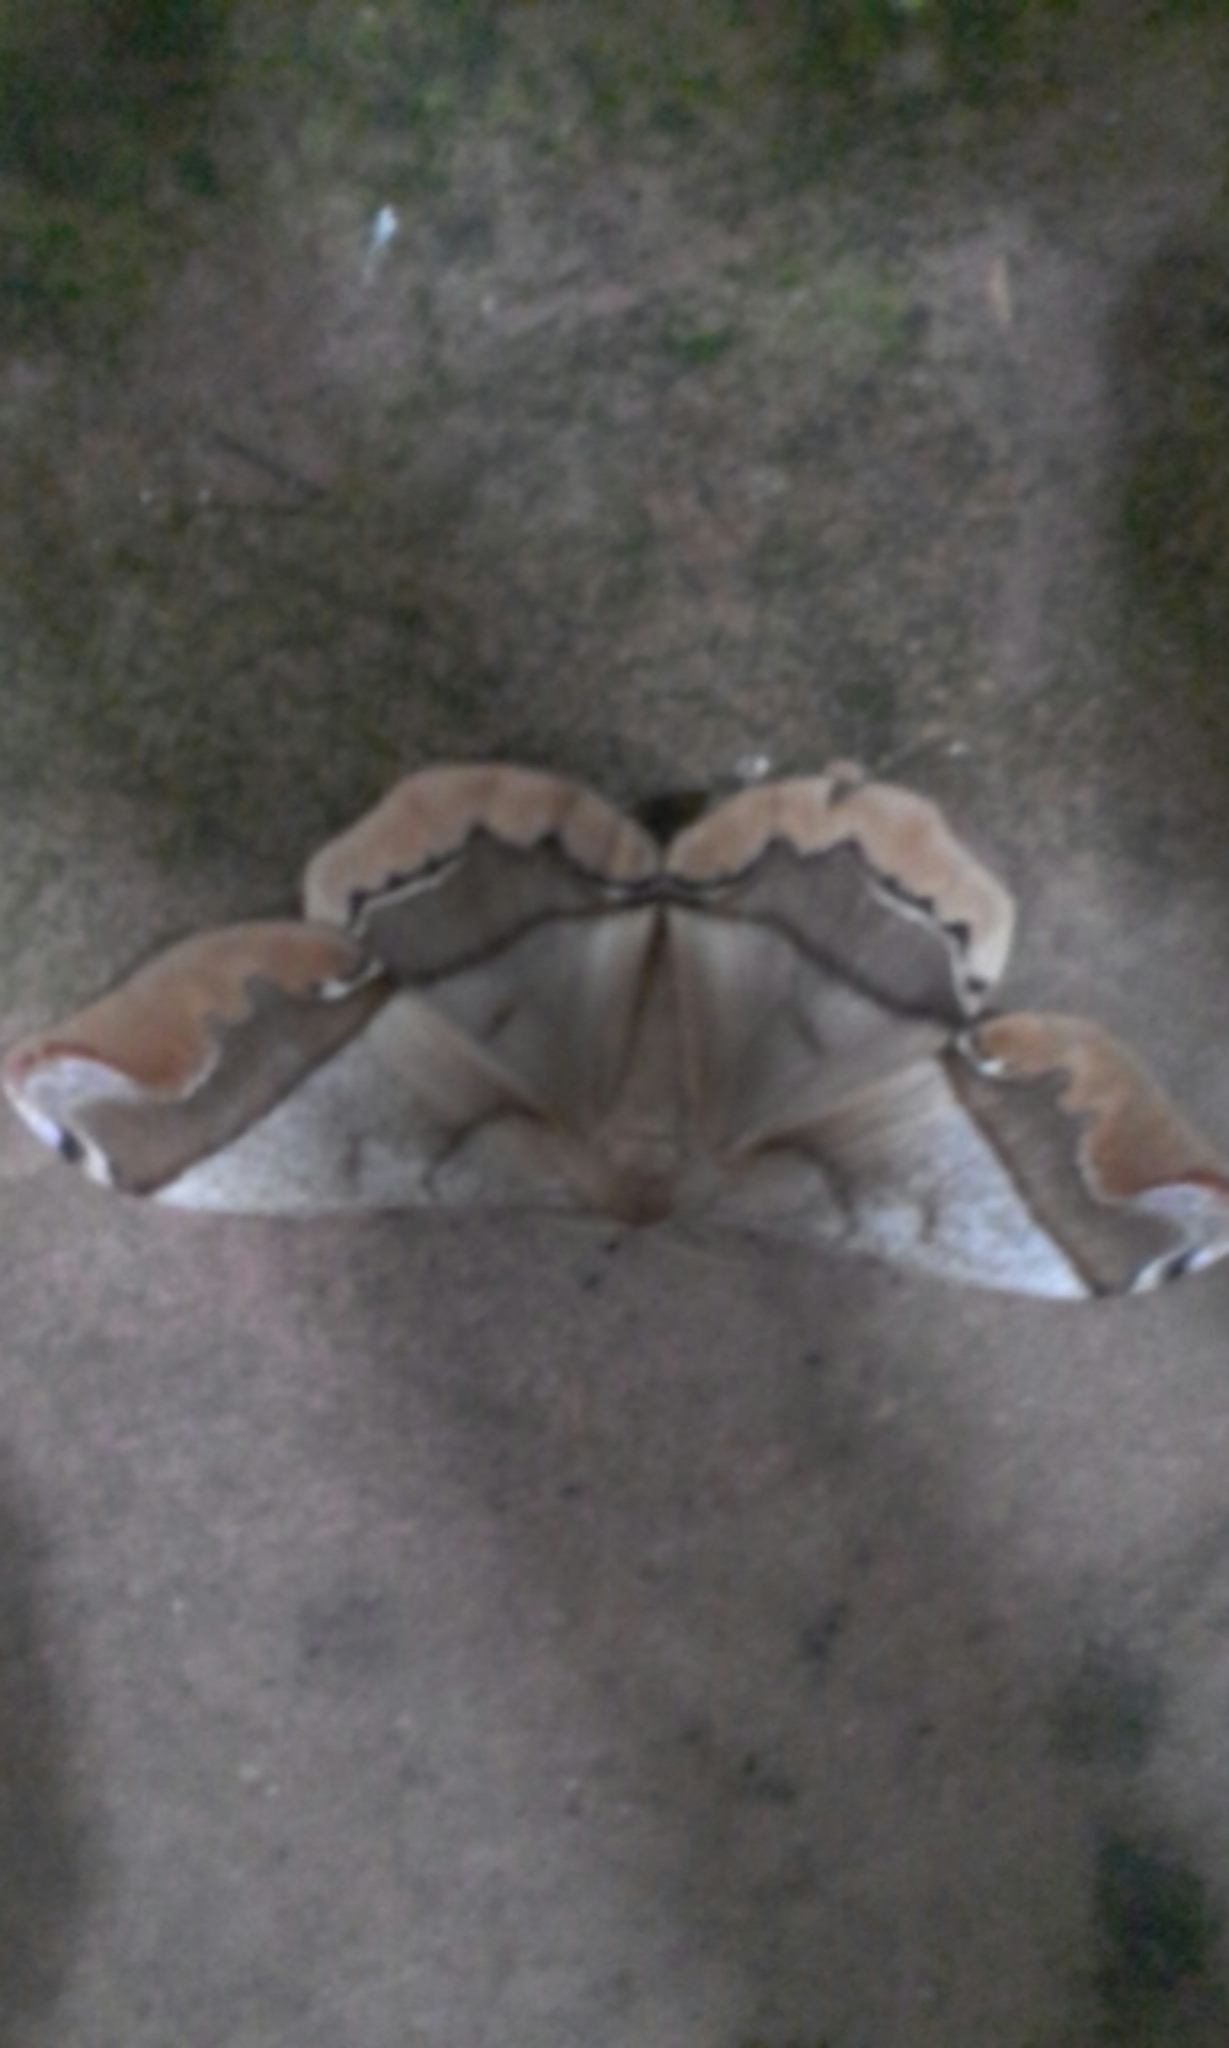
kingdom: Animalia
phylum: Arthropoda
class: Insecta
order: Lepidoptera
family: Saturniidae
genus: Arsenura
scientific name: Arsenura armida
